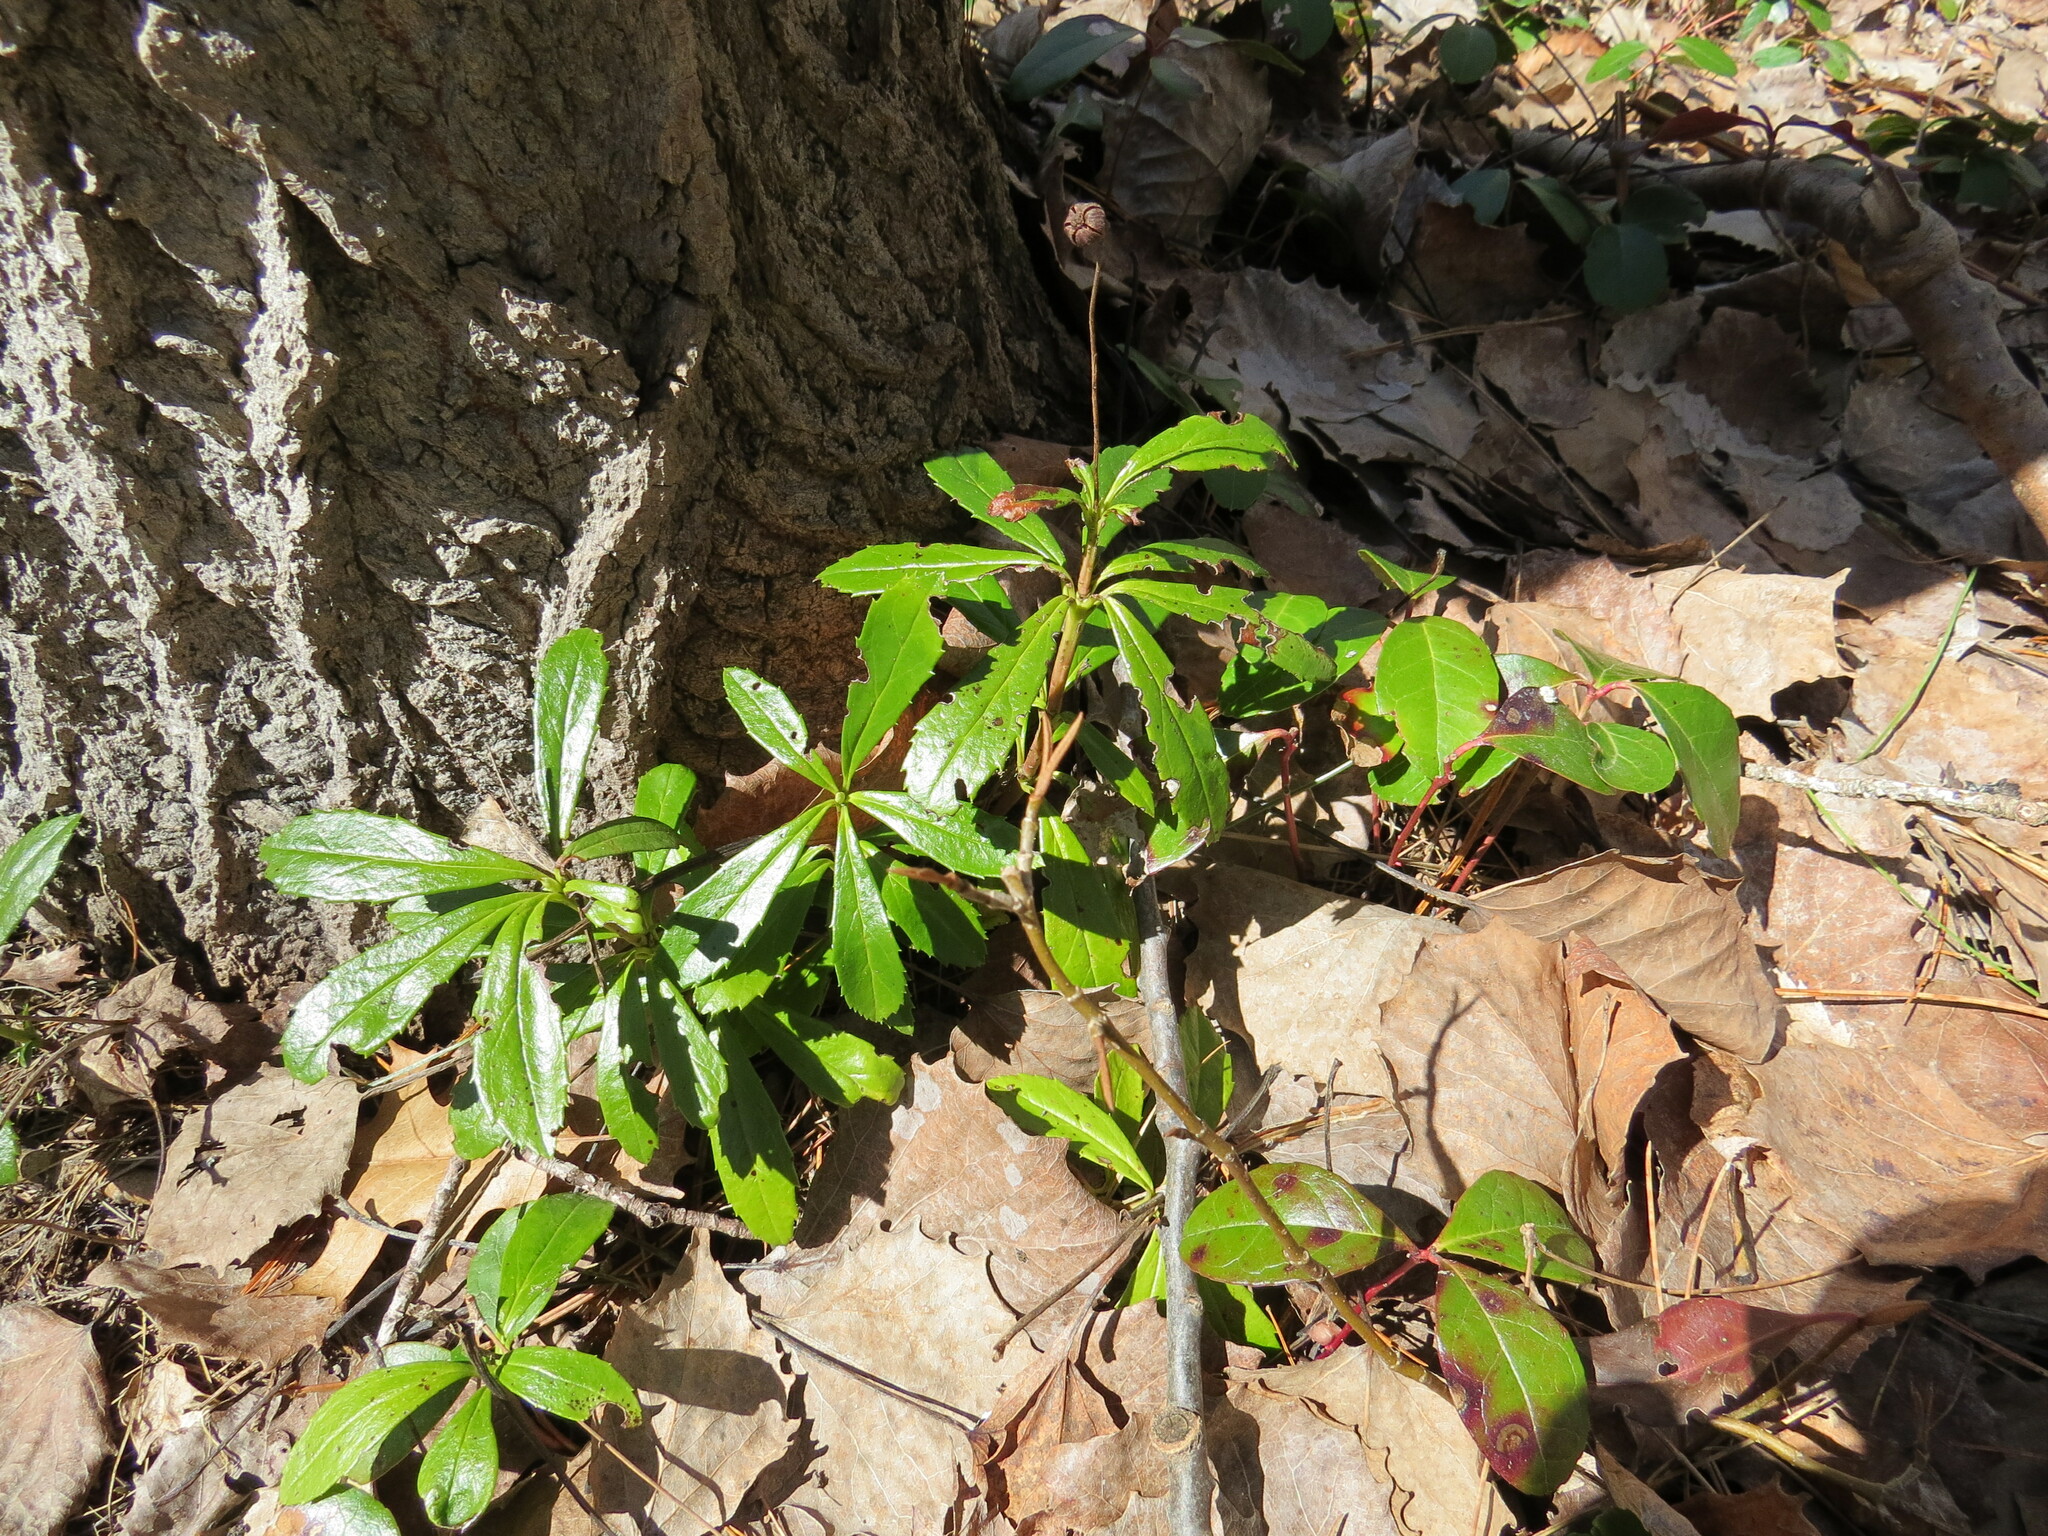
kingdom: Plantae
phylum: Tracheophyta
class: Magnoliopsida
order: Ericales
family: Ericaceae
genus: Chimaphila
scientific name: Chimaphila umbellata
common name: Pipsissewa
